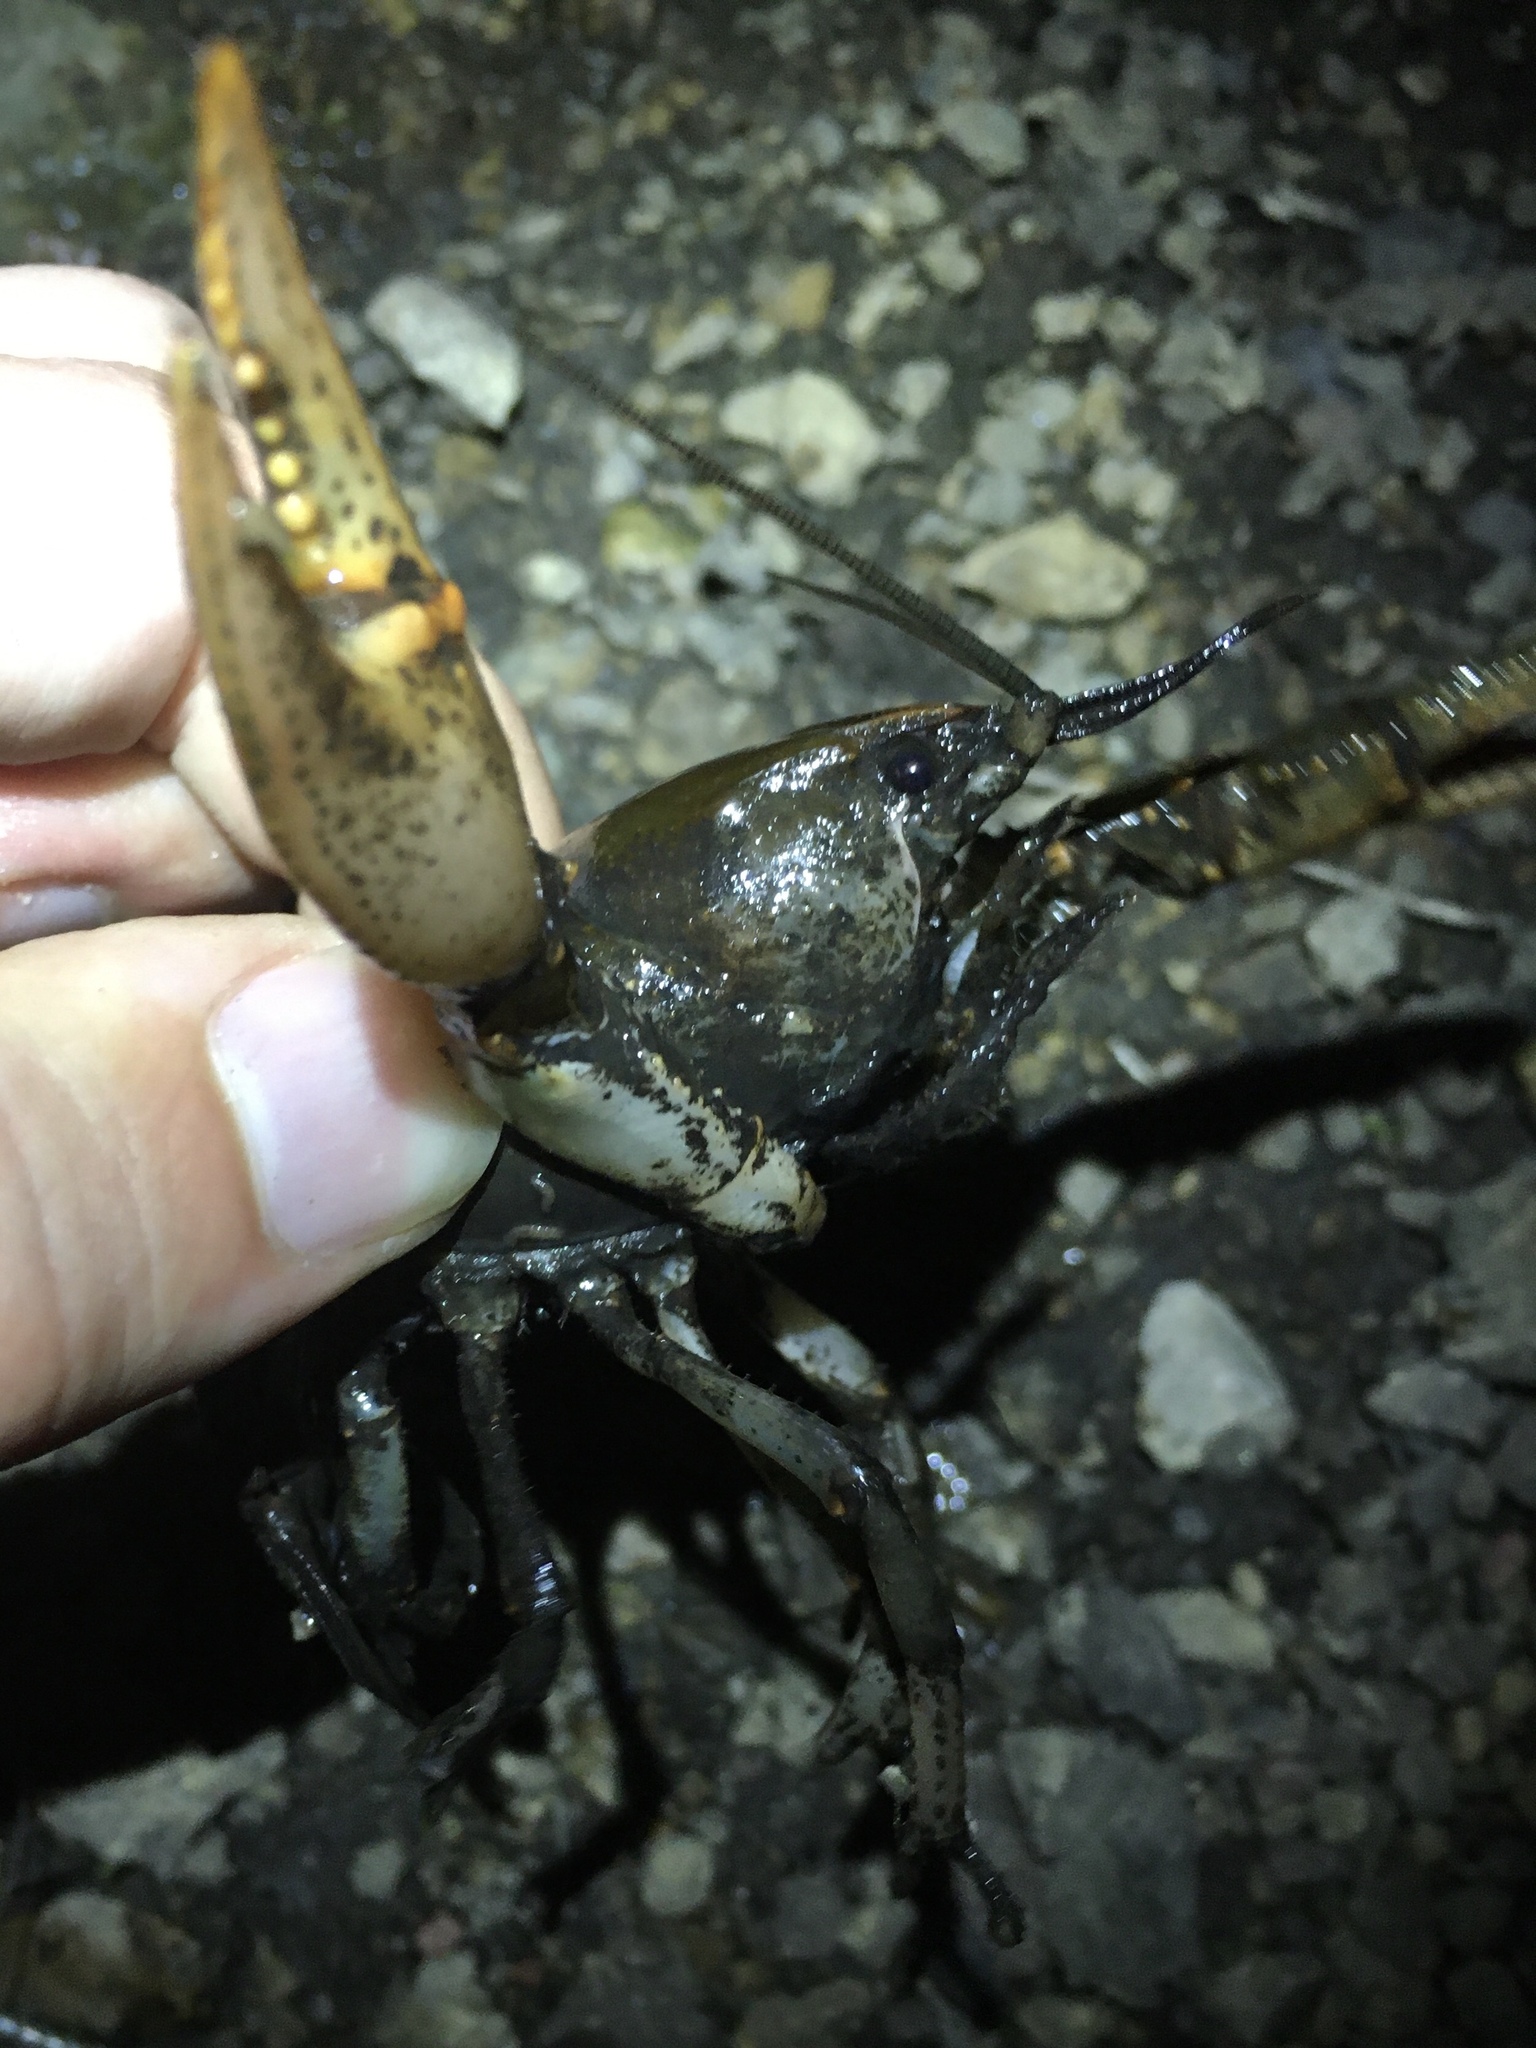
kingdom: Animalia
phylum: Arthropoda
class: Malacostraca
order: Decapoda
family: Cambaridae
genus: Lacunicambarus
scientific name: Lacunicambarus diogenes
